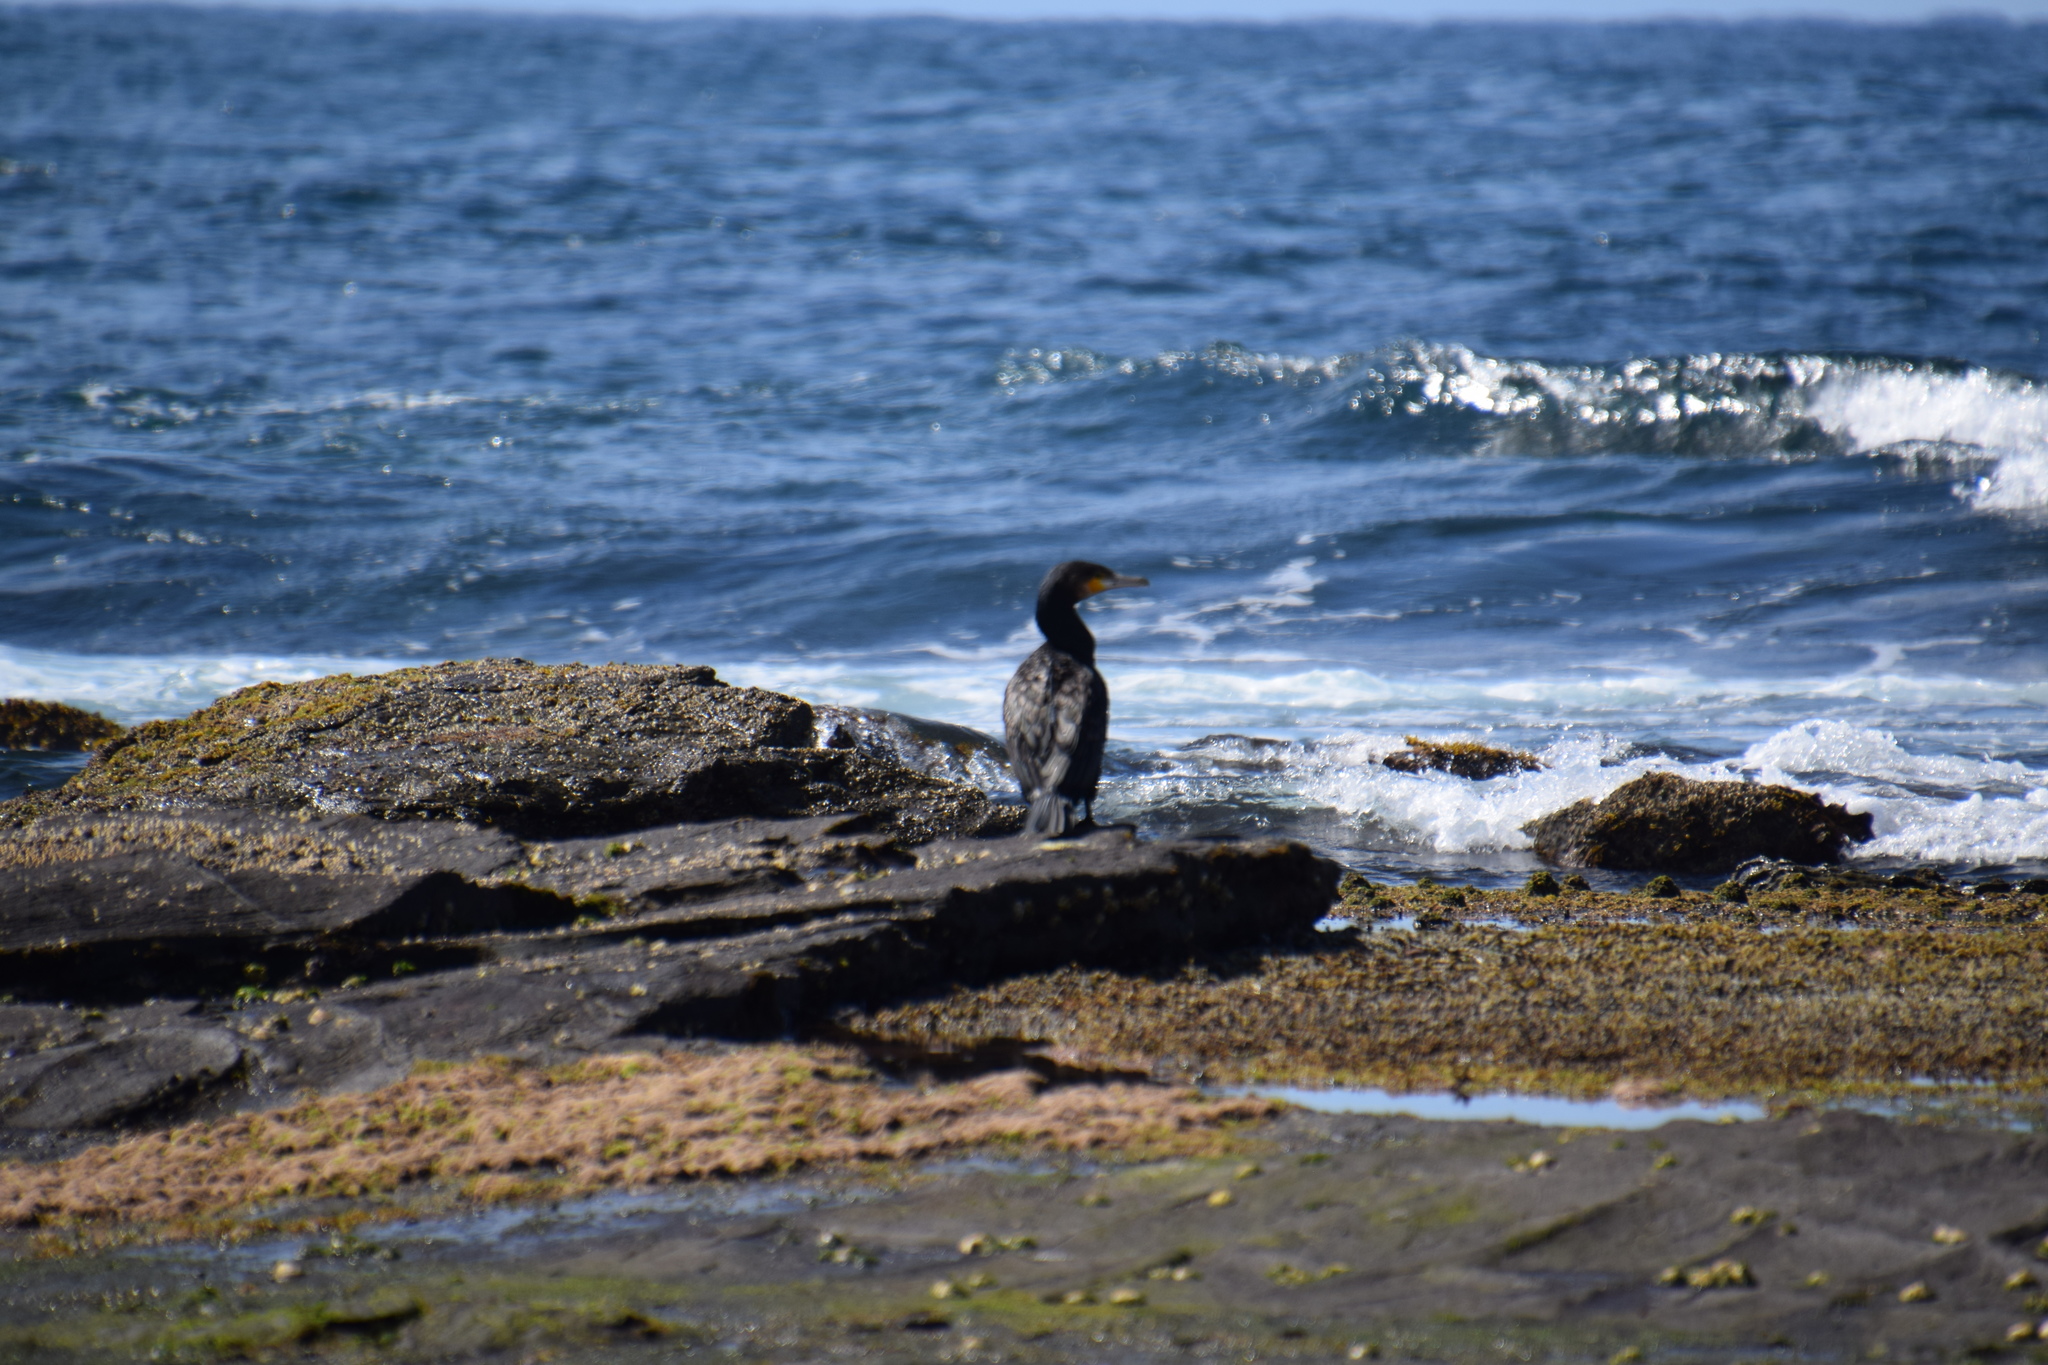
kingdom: Animalia
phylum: Chordata
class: Aves
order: Suliformes
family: Phalacrocoracidae
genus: Phalacrocorax
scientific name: Phalacrocorax carbo
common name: Great cormorant
